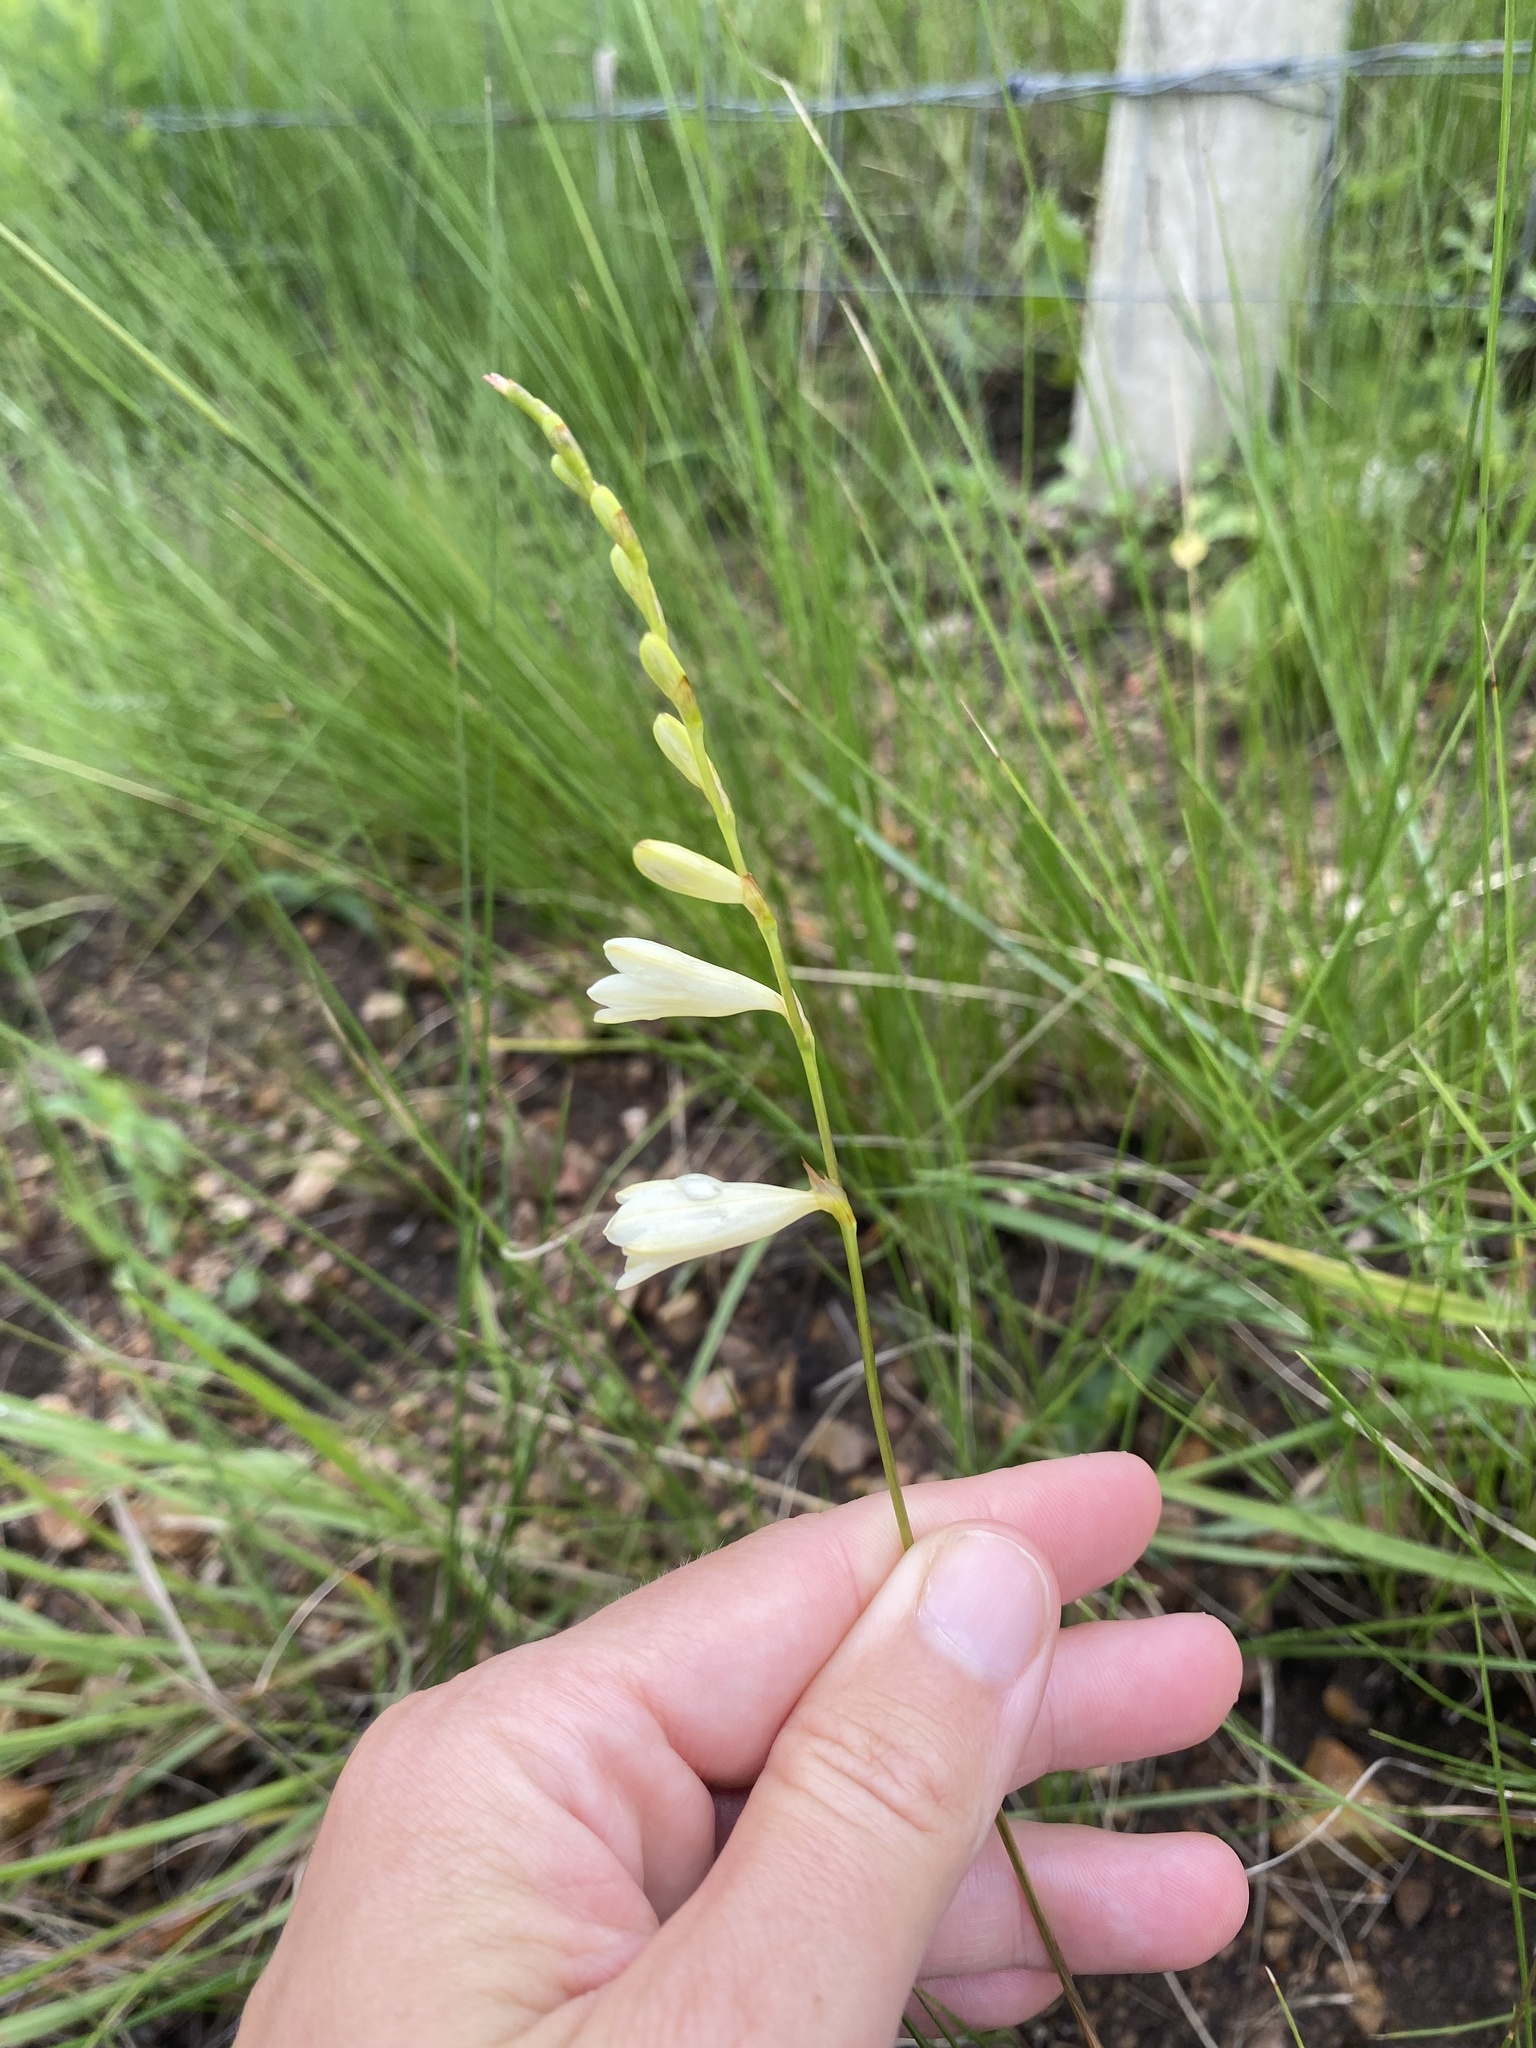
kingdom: Plantae
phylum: Tracheophyta
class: Liliopsida
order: Asparagales
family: Iridaceae
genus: Tritonia
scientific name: Tritonia gladiolaris
